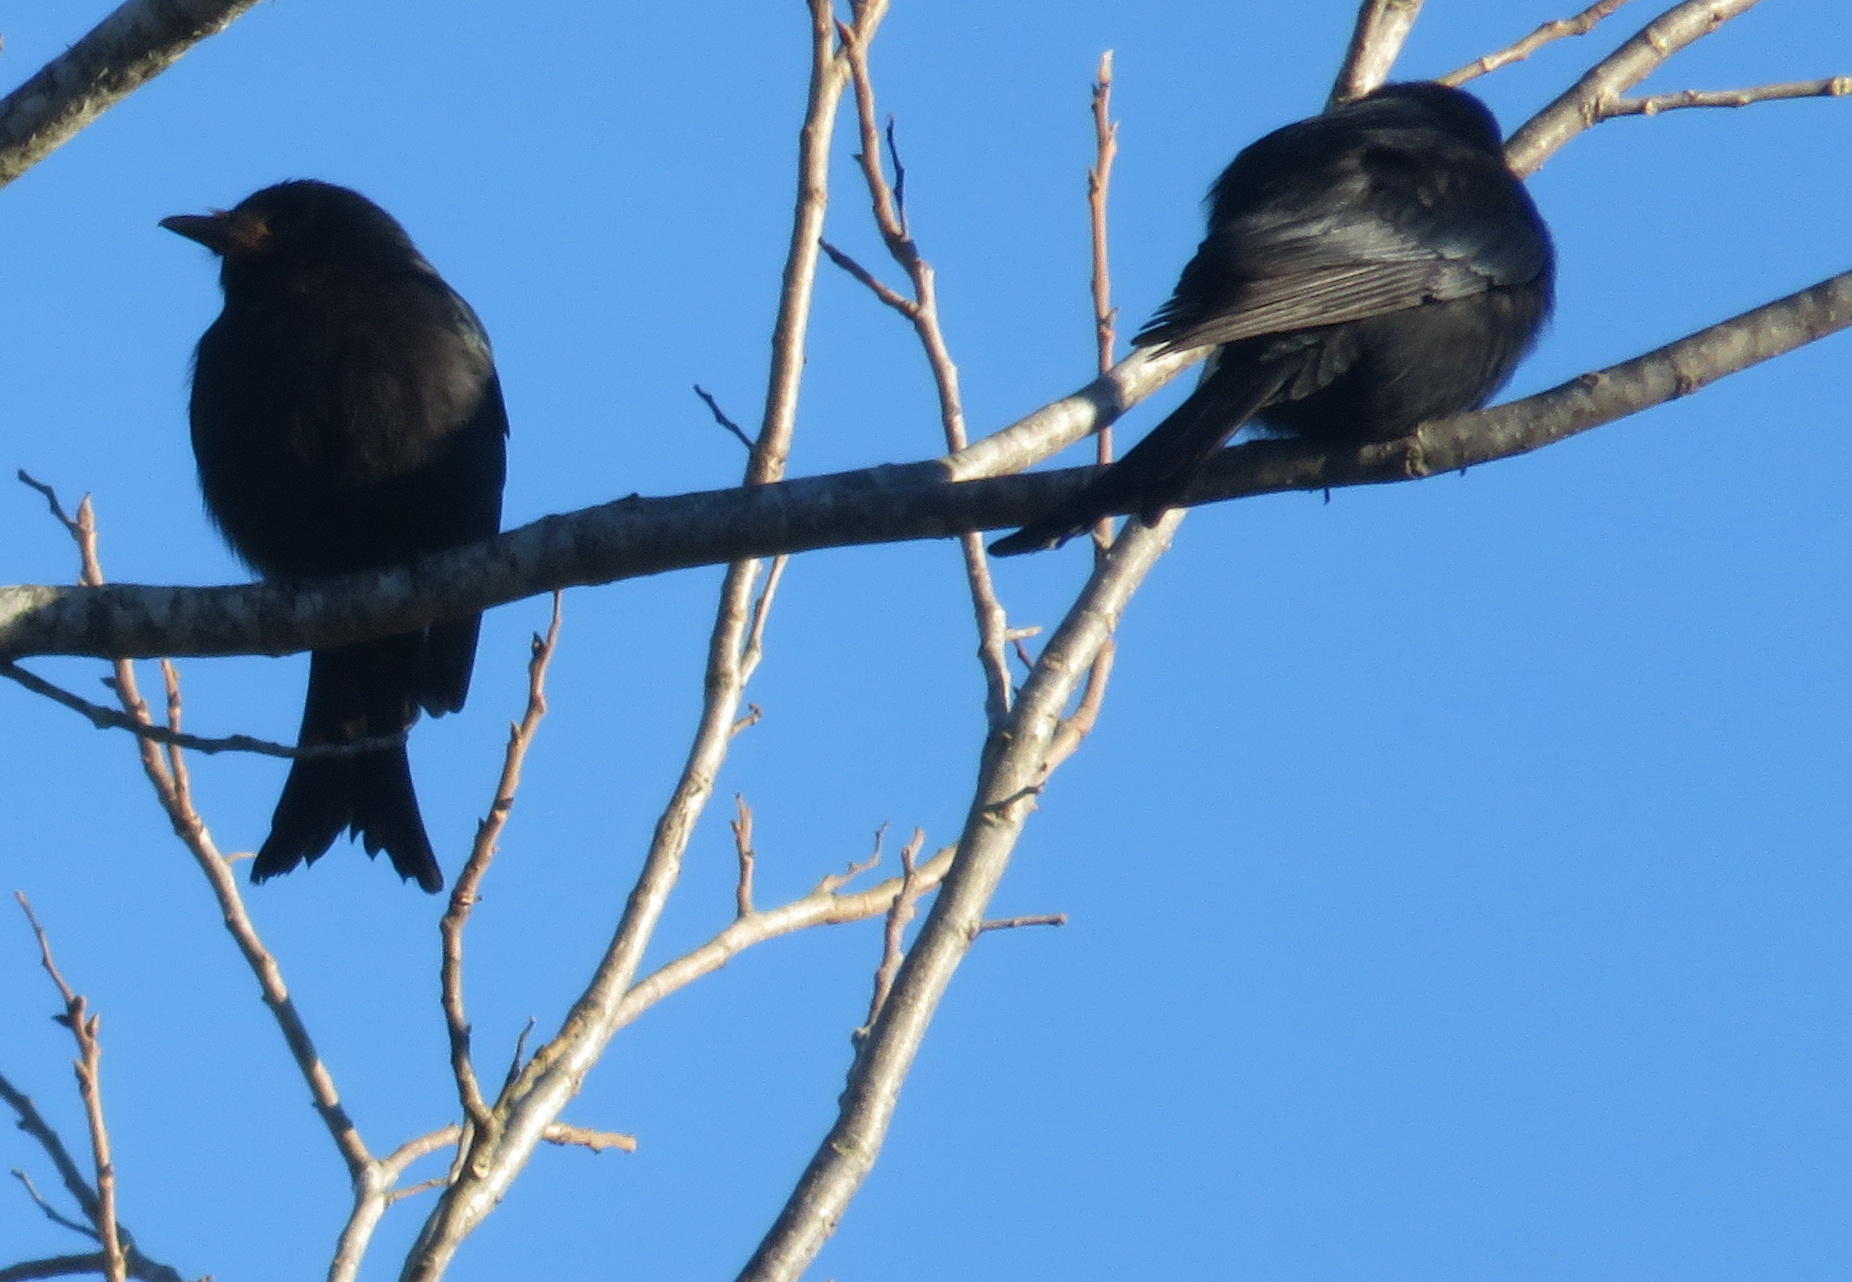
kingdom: Animalia
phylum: Chordata
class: Aves
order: Passeriformes
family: Dicruridae
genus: Dicrurus
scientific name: Dicrurus adsimilis
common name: Fork-tailed drongo
